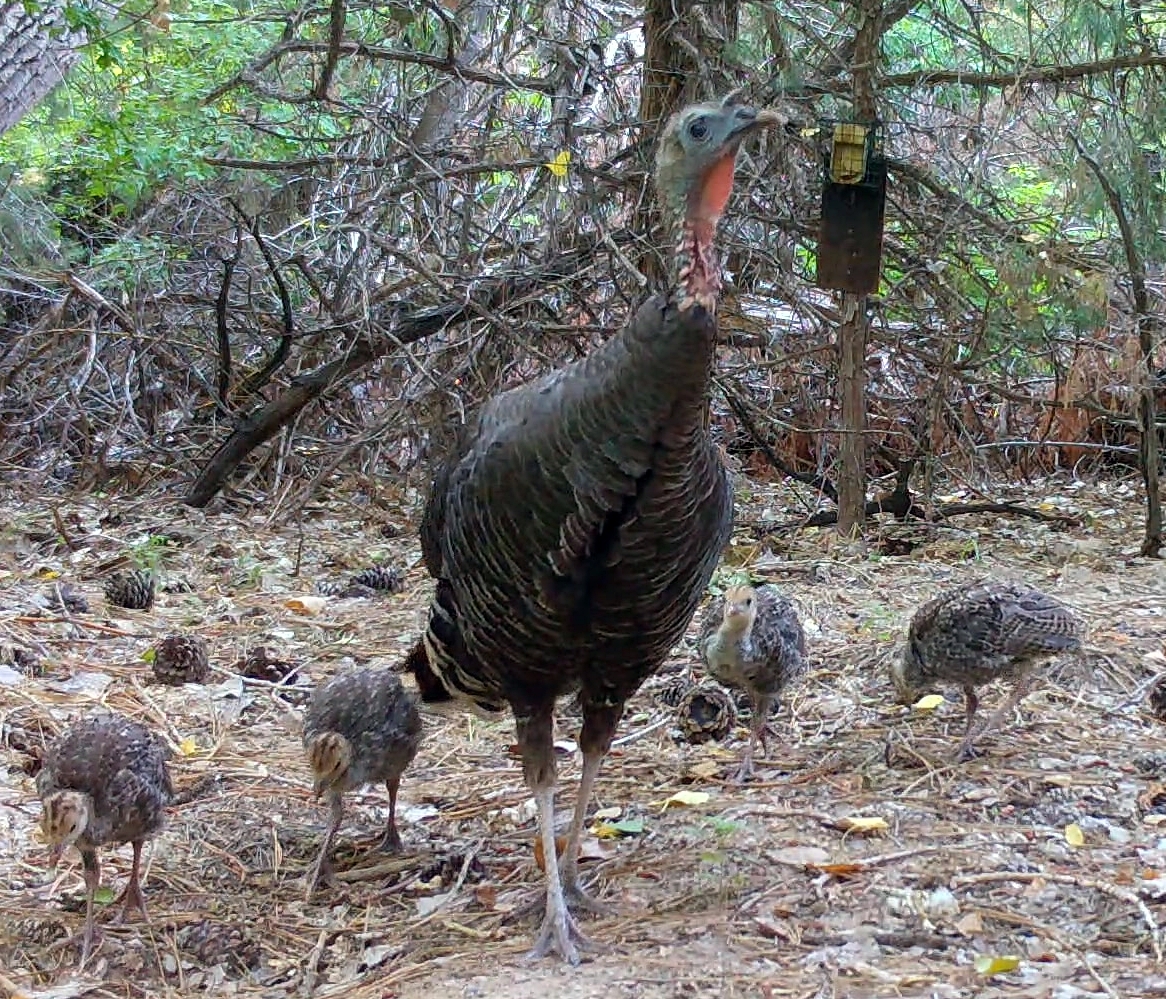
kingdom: Animalia
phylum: Chordata
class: Aves
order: Galliformes
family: Phasianidae
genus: Meleagris
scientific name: Meleagris gallopavo
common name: Wild turkey
